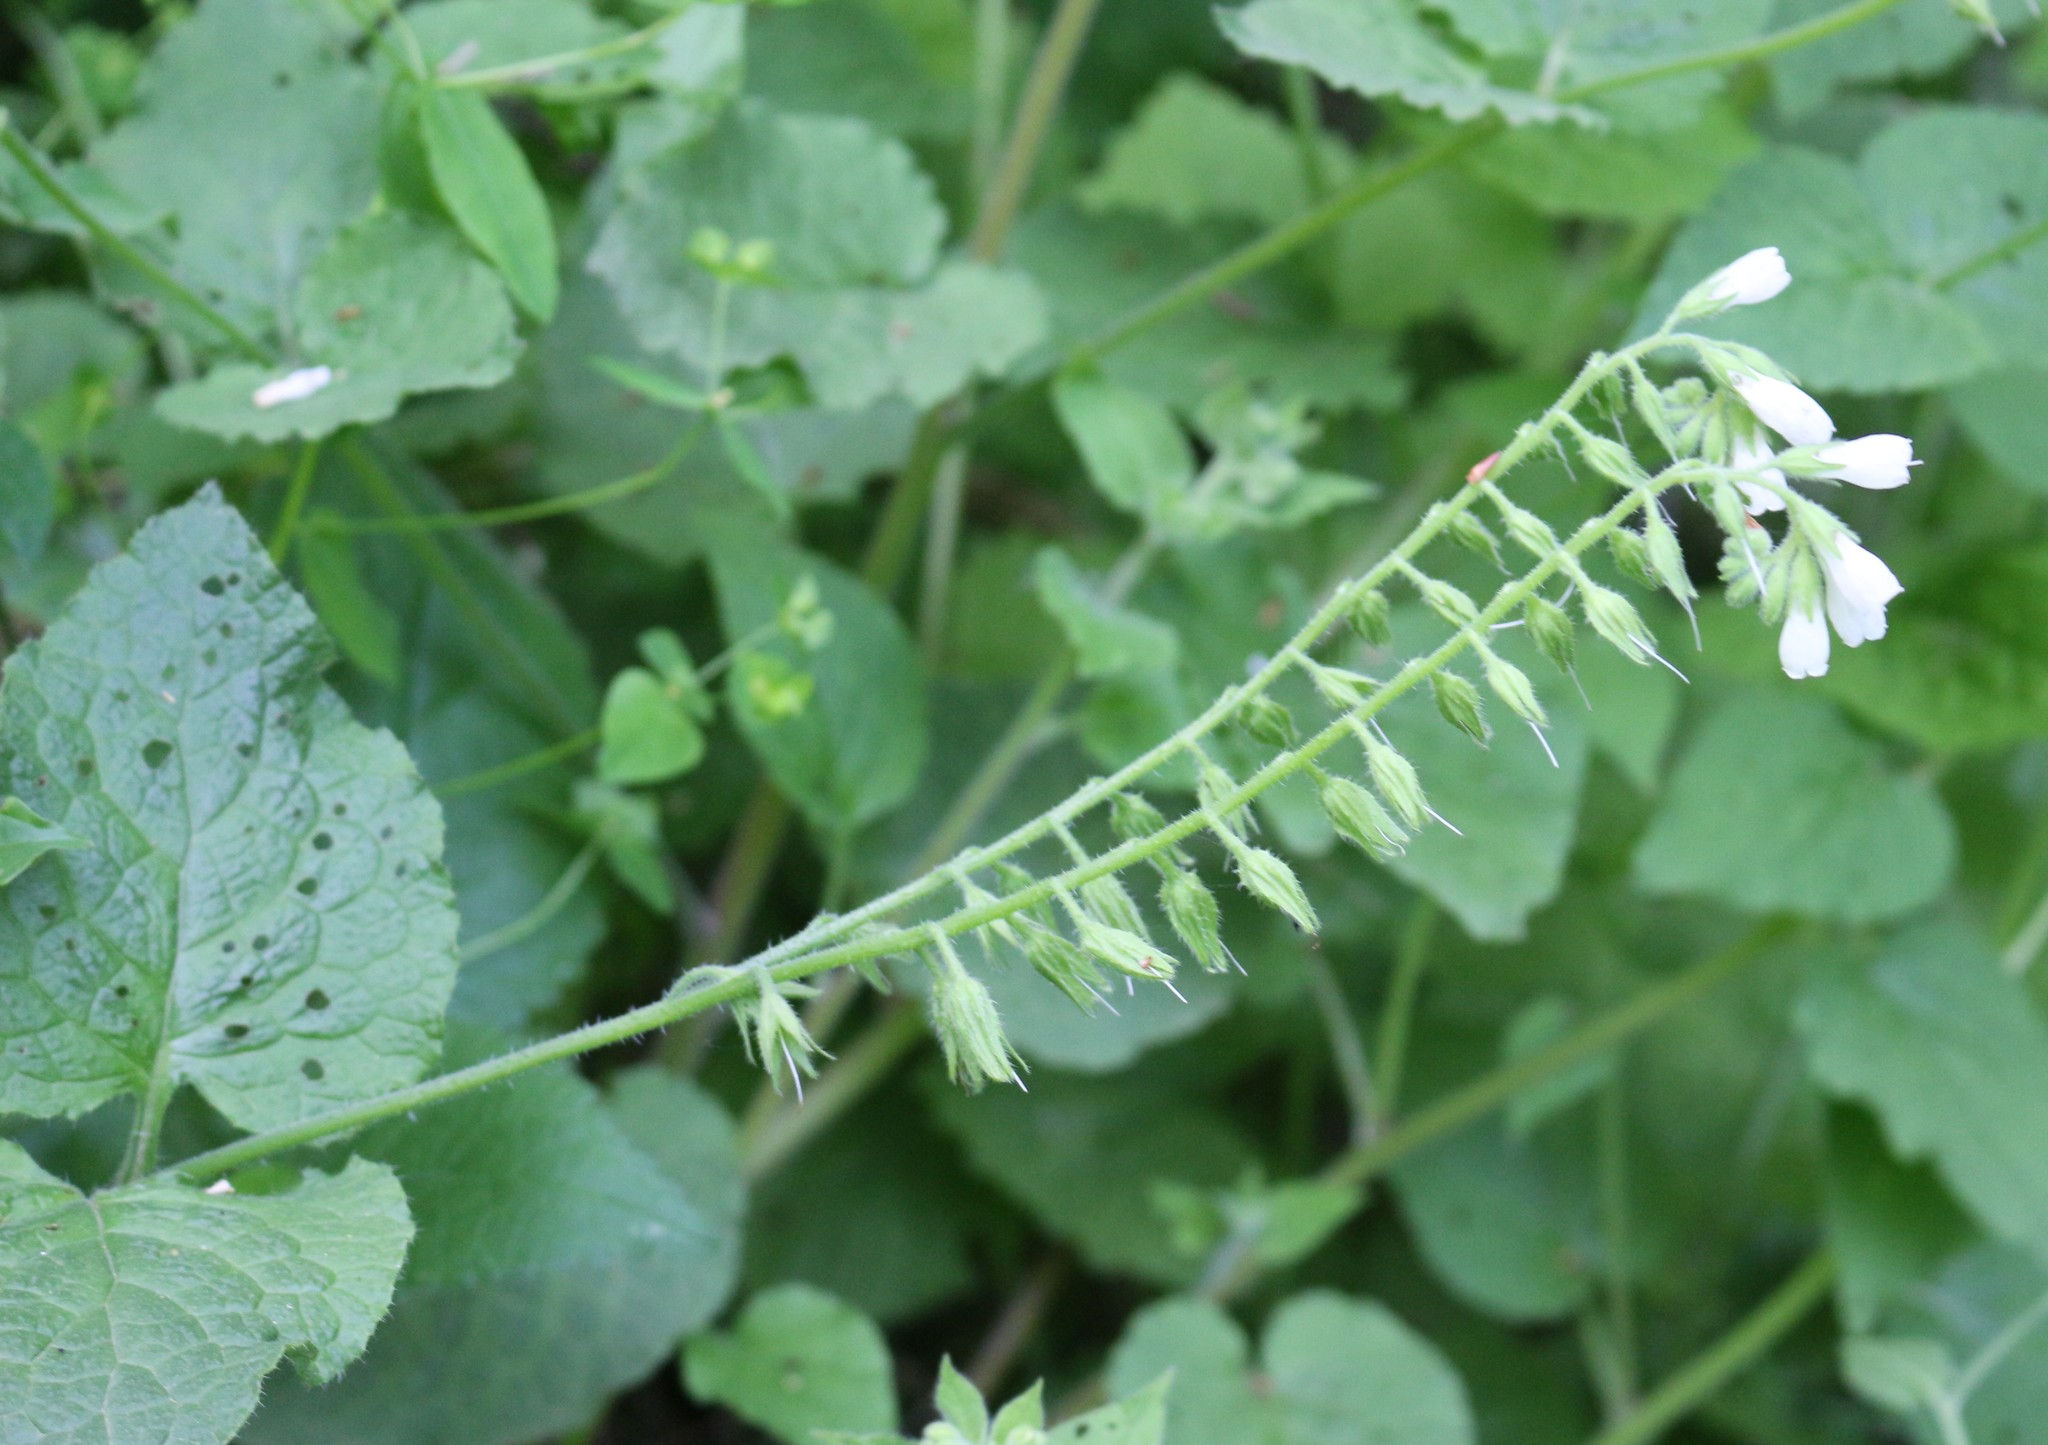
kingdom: Plantae
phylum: Tracheophyta
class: Magnoliopsida
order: Boraginales
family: Boraginaceae
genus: Symphytum
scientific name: Symphytum tauricum
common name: Crimean comfrey
